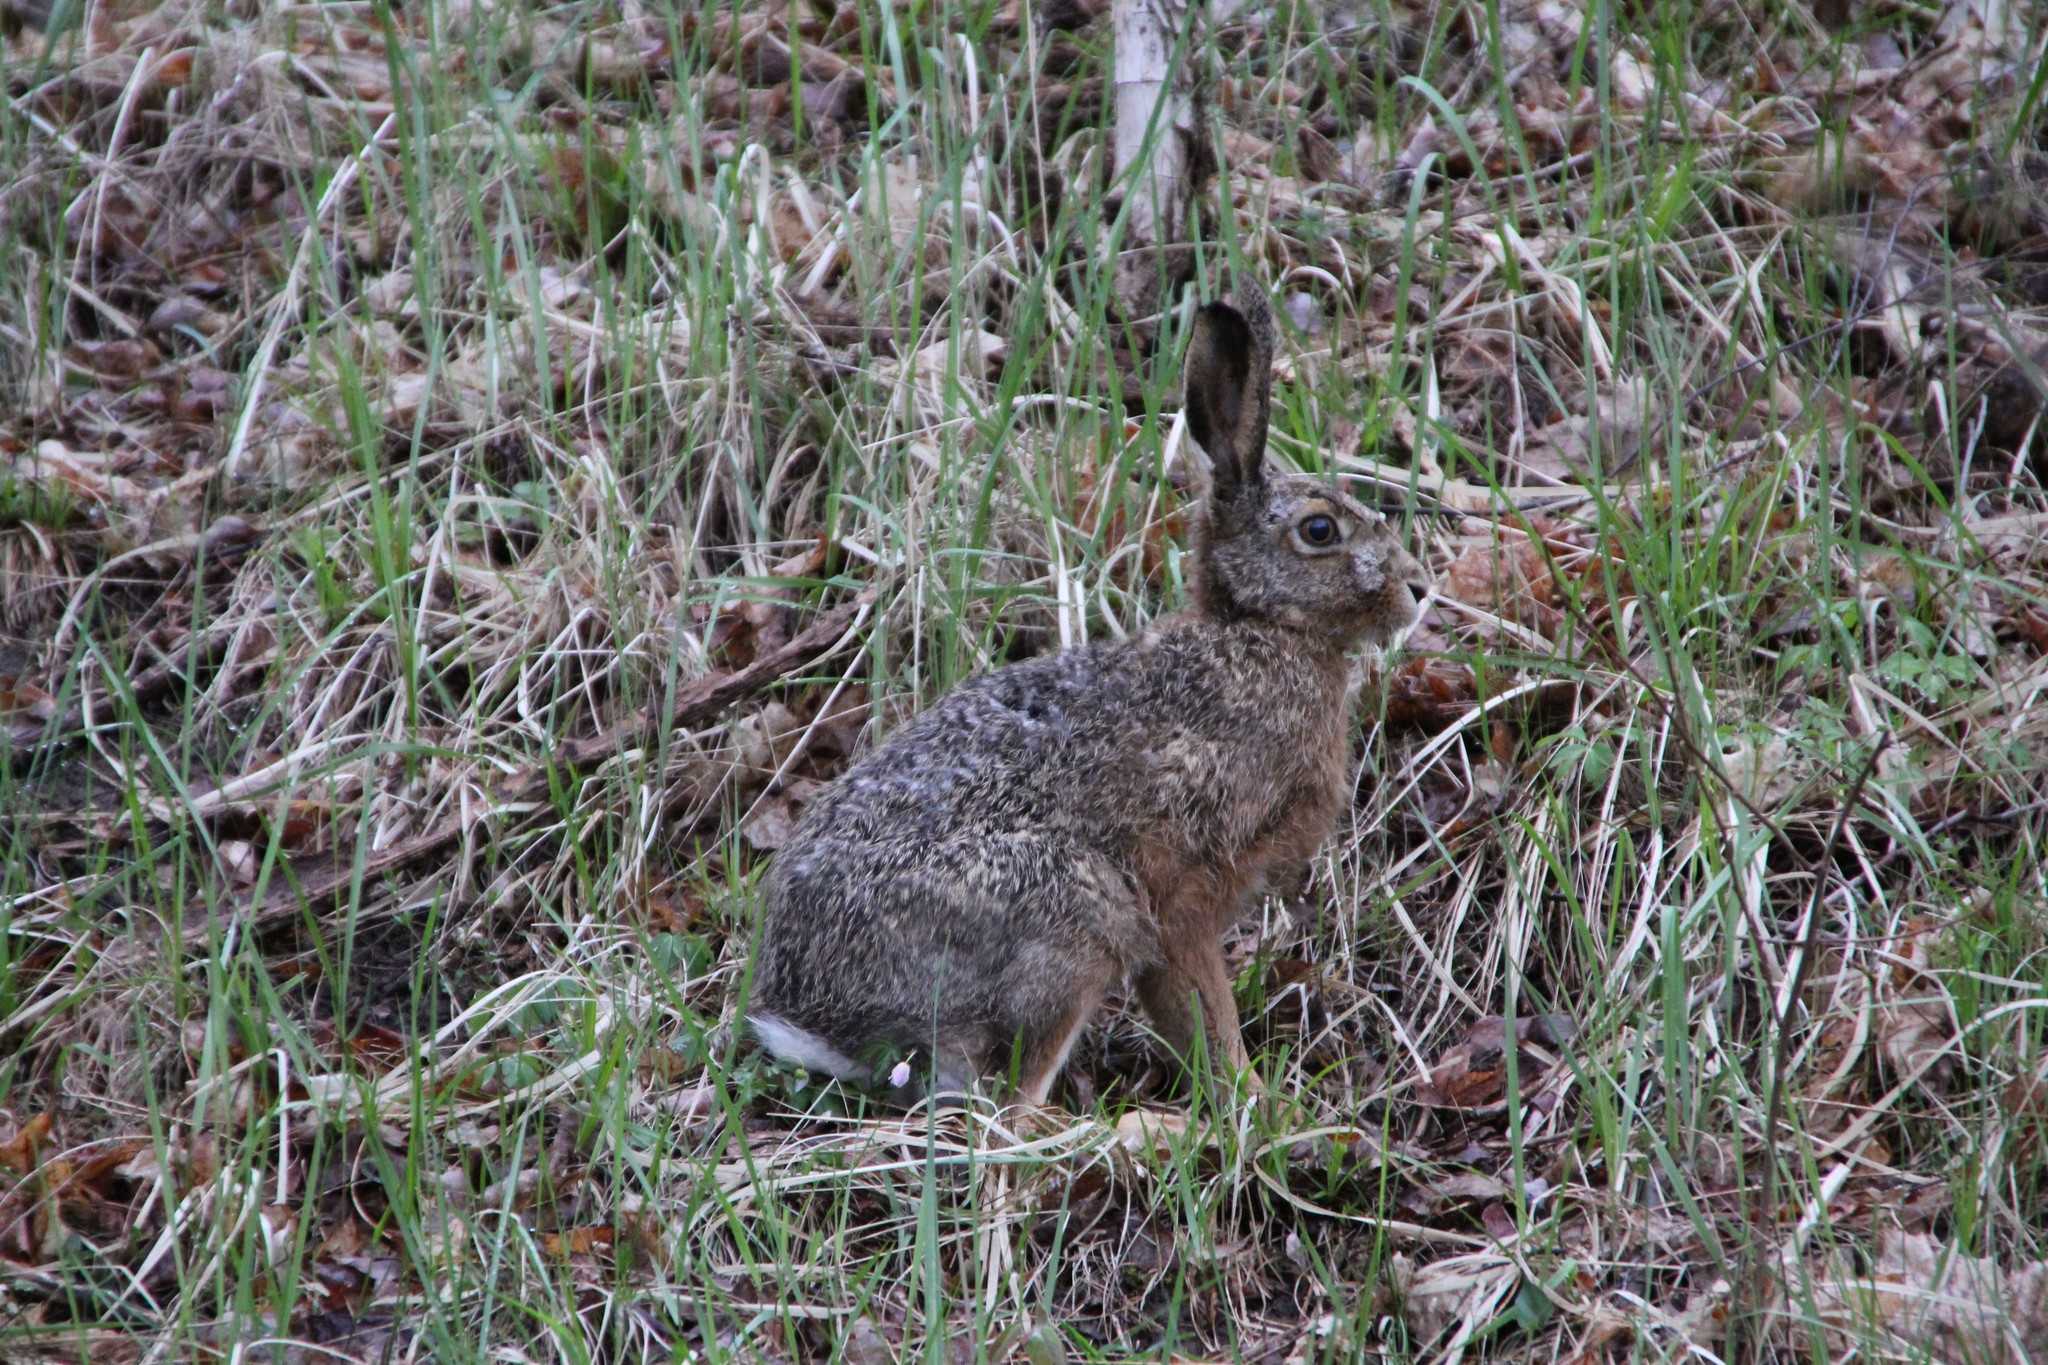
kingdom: Animalia
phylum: Chordata
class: Mammalia
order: Lagomorpha
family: Leporidae
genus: Lepus
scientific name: Lepus europaeus
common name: European hare
